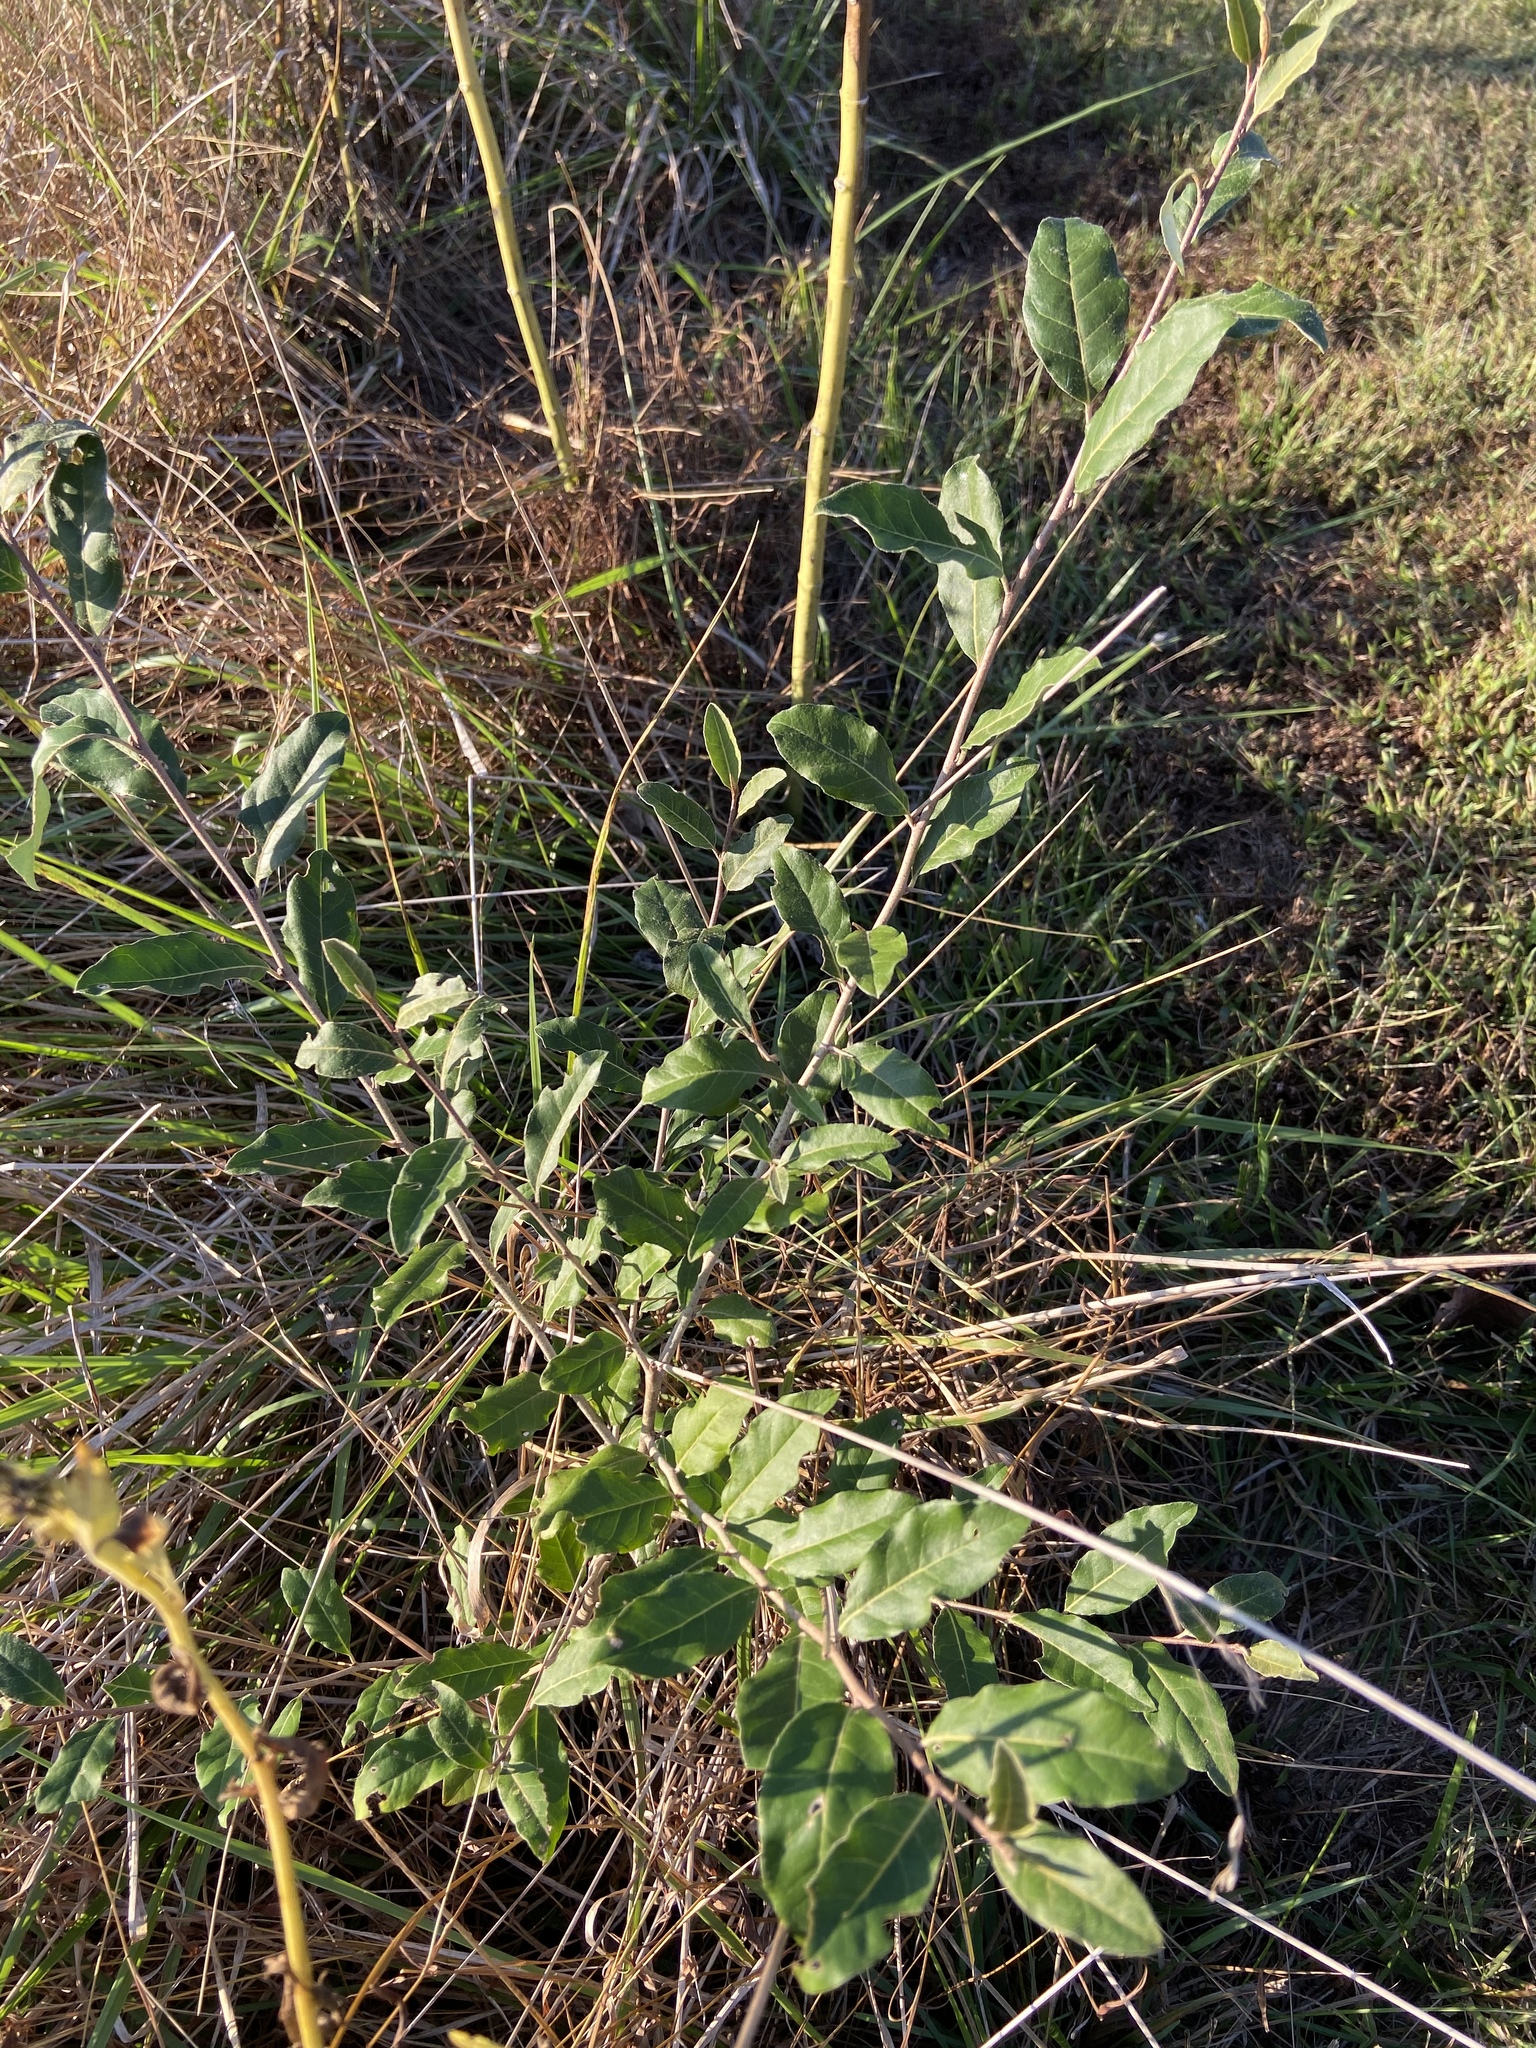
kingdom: Plantae
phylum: Tracheophyta
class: Magnoliopsida
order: Rosales
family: Elaeagnaceae
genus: Elaeagnus
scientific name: Elaeagnus umbellata
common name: Autumn olive
